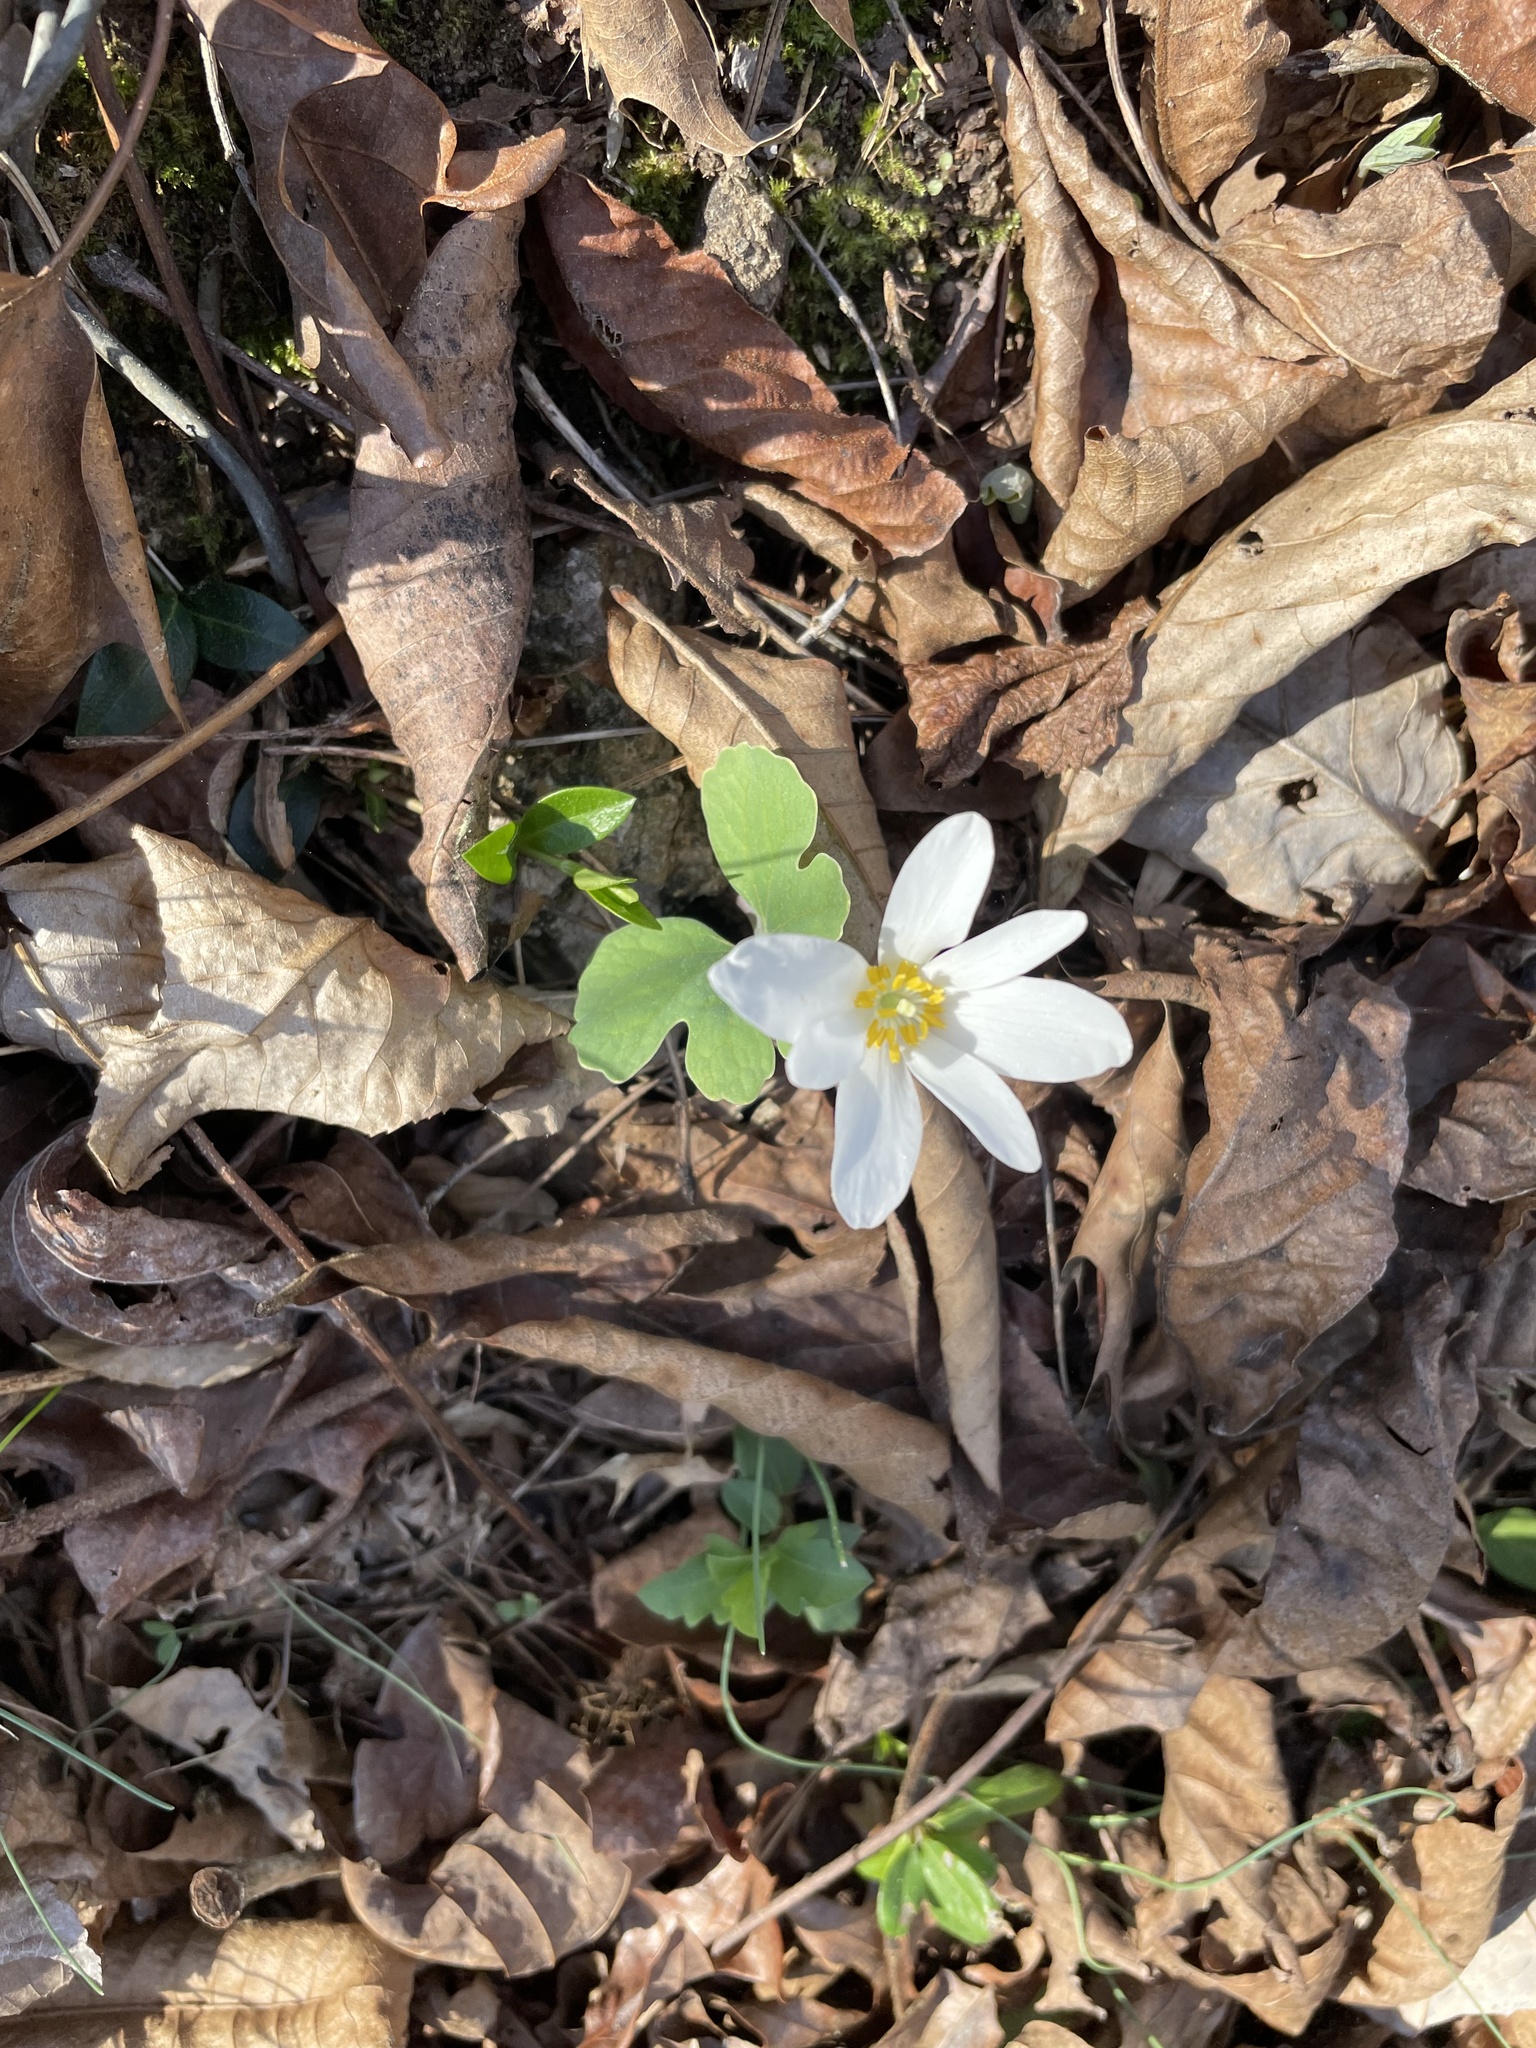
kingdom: Plantae
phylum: Tracheophyta
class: Magnoliopsida
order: Ranunculales
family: Papaveraceae
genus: Sanguinaria
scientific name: Sanguinaria canadensis
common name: Bloodroot
